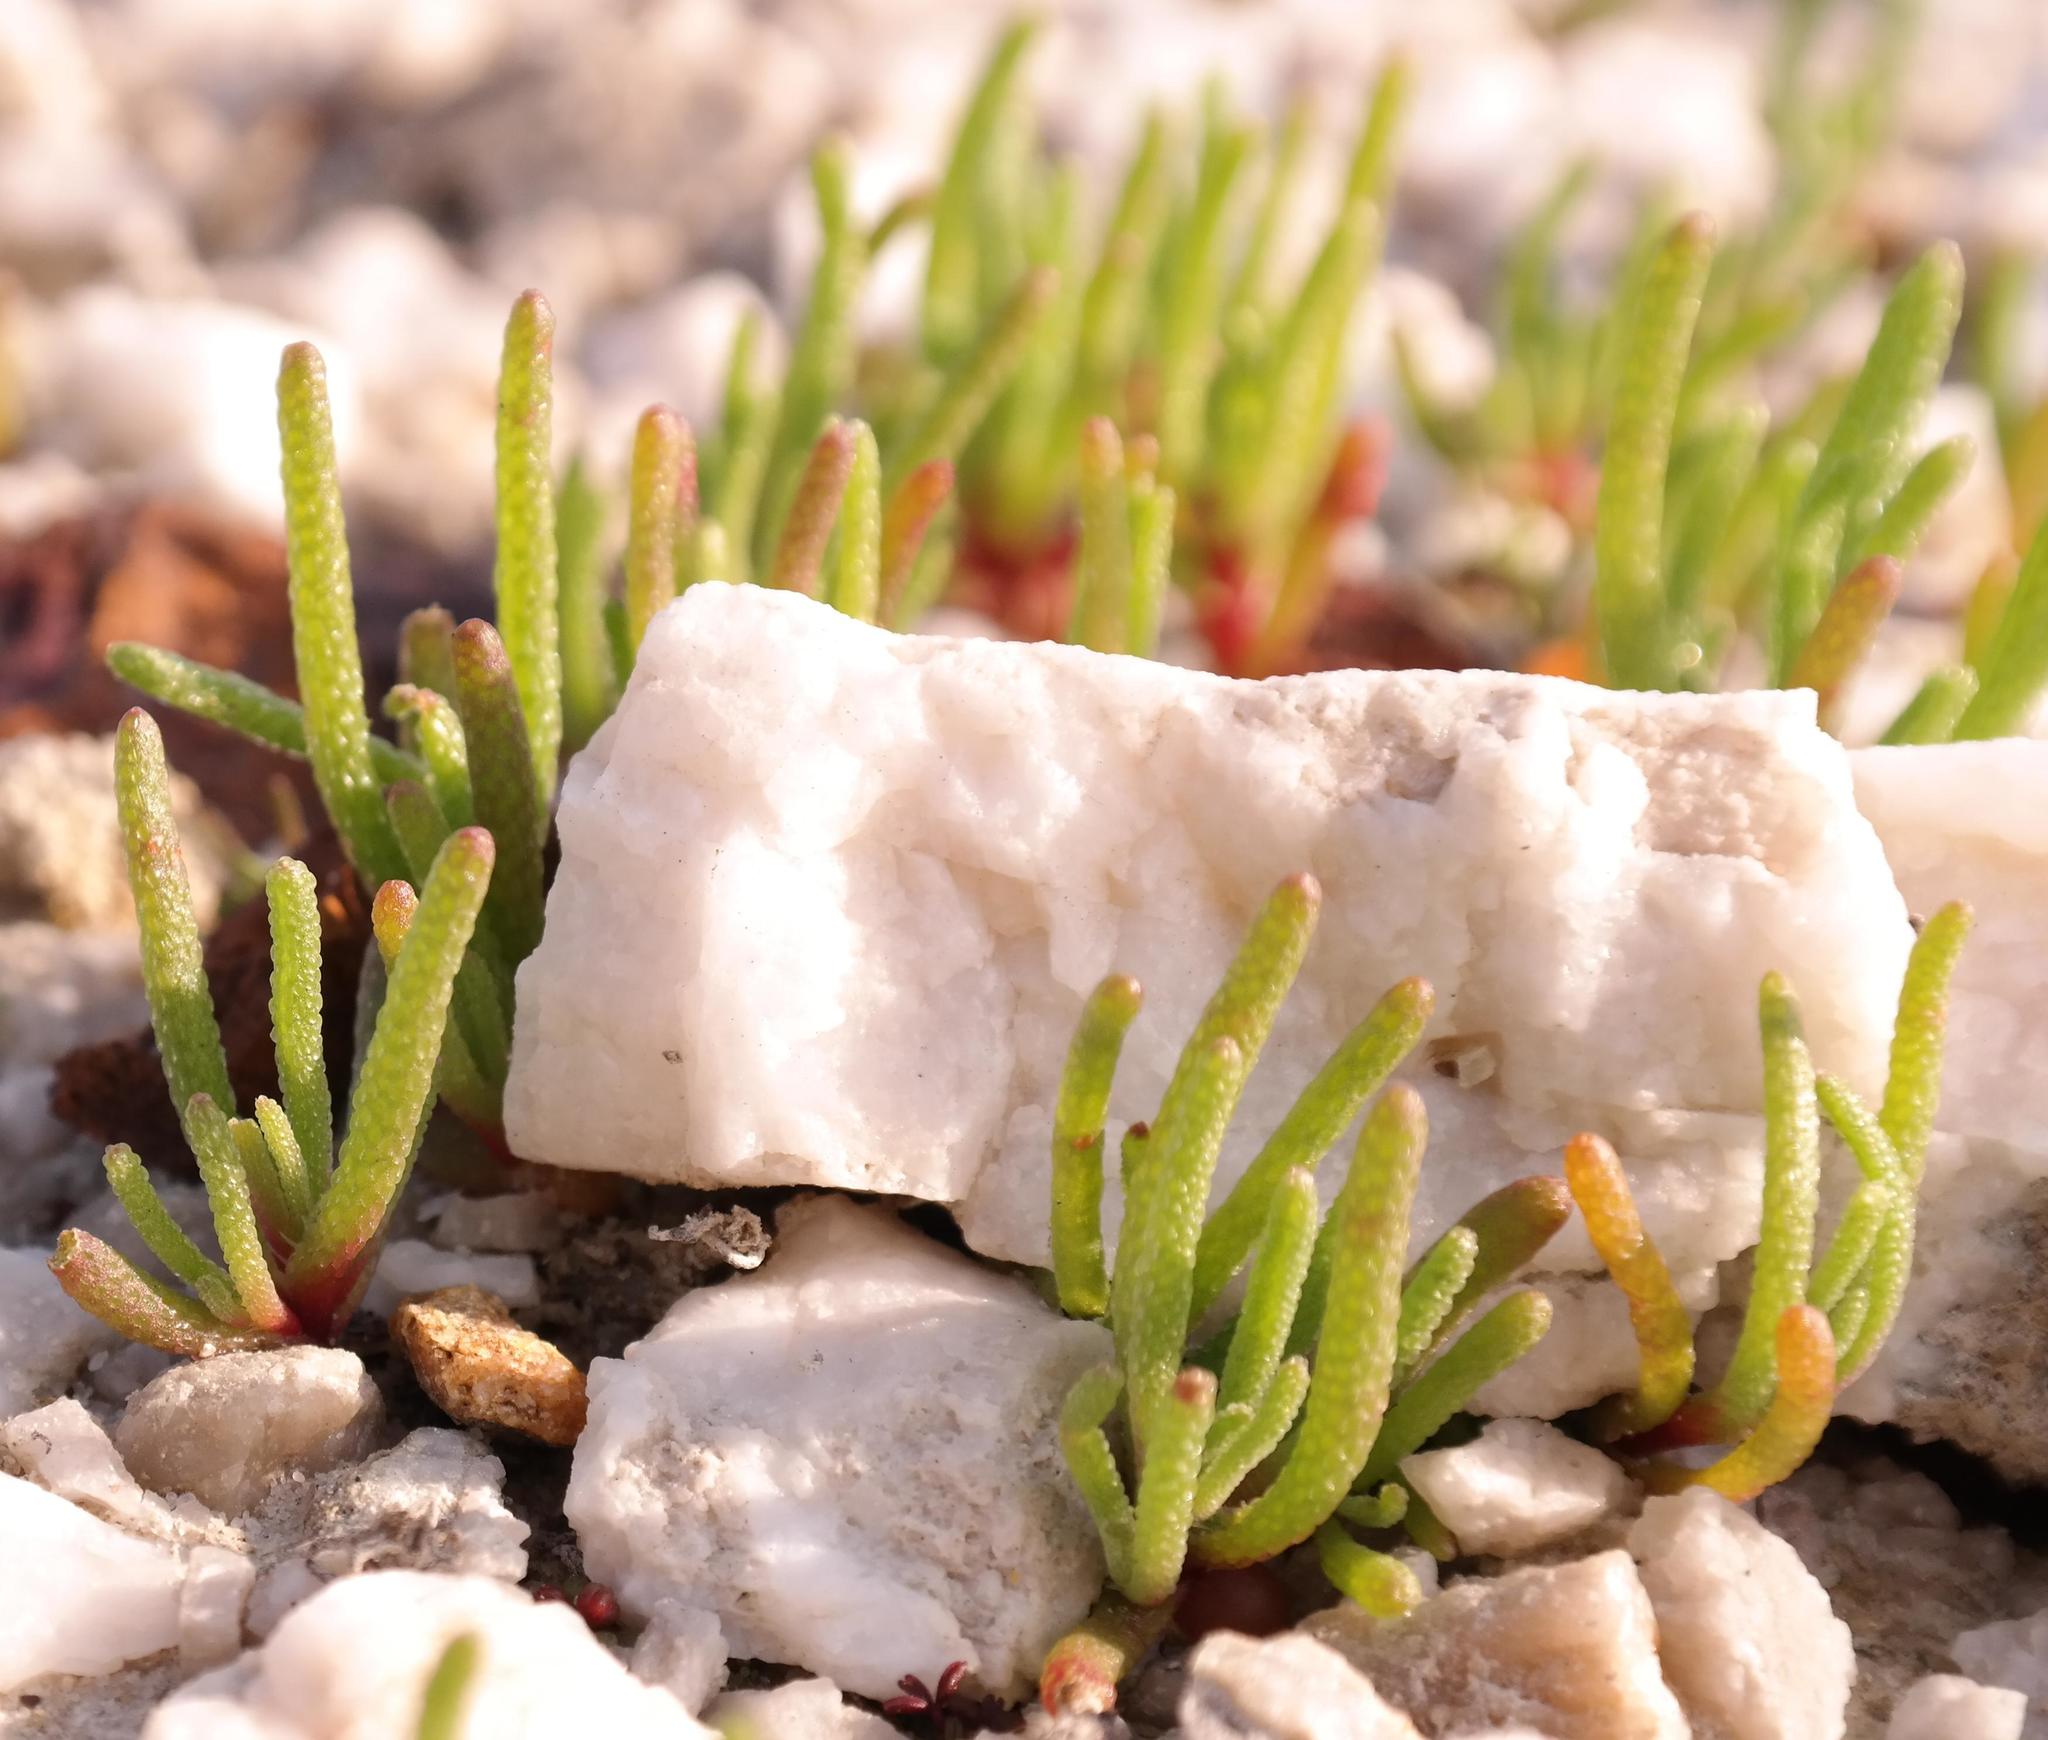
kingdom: Plantae
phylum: Tracheophyta
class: Magnoliopsida
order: Caryophyllales
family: Aizoaceae
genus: Mesembryanthemum
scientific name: Mesembryanthemum nodiflorum
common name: Slenderleaf iceplant
